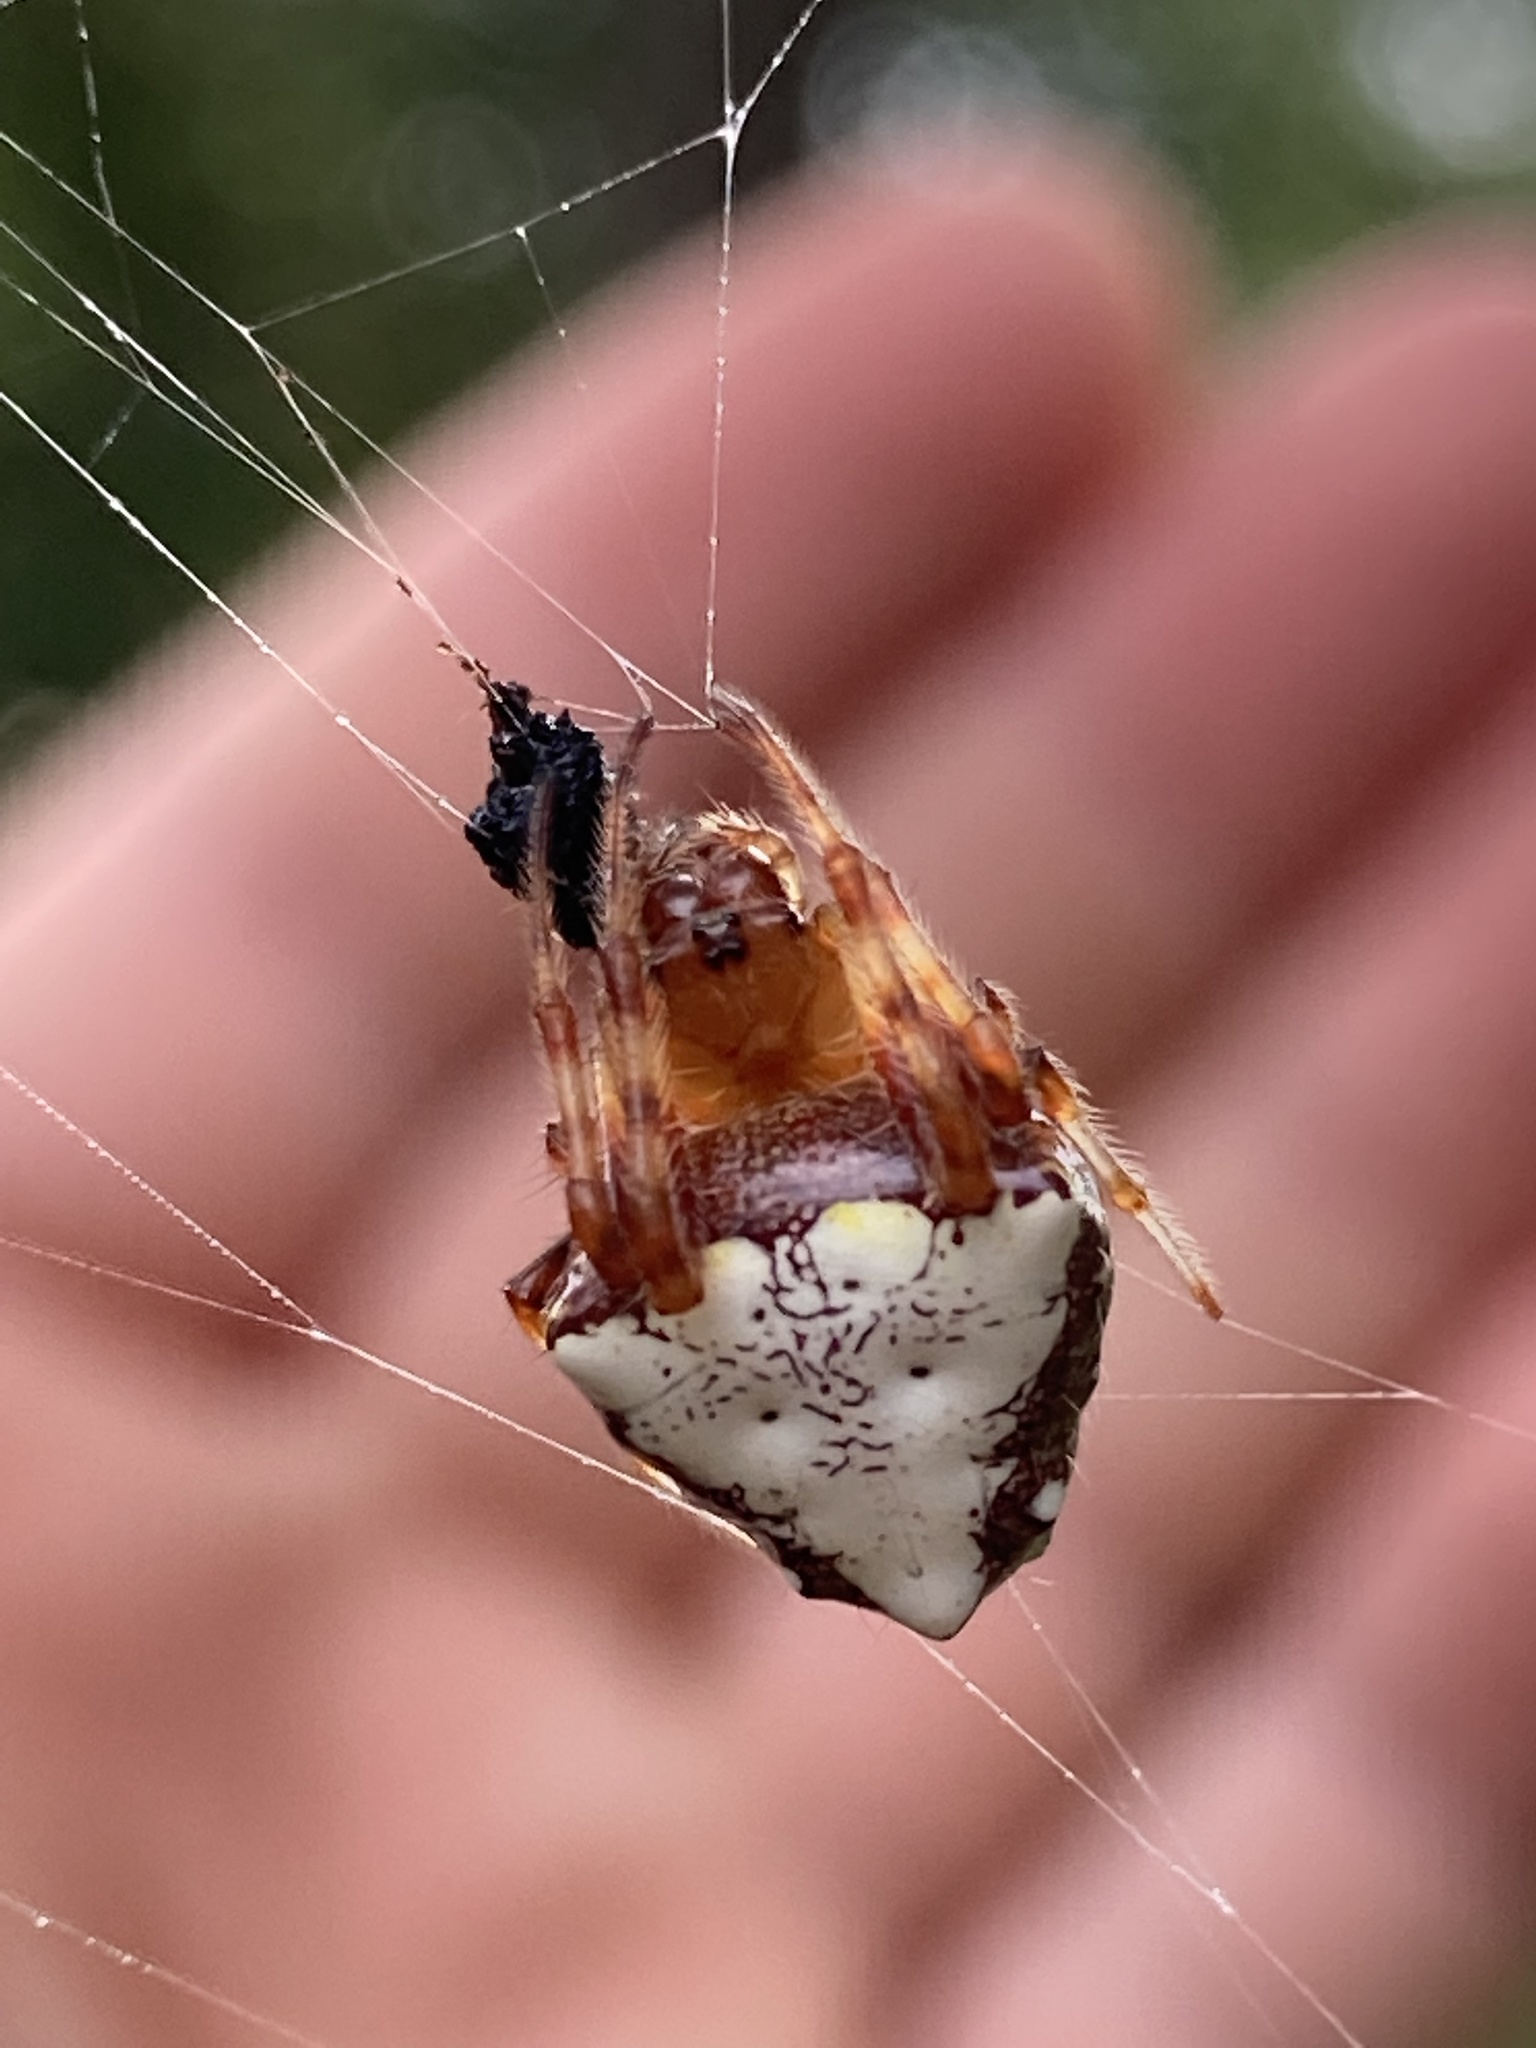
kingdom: Animalia
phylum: Arthropoda
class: Arachnida
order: Araneae
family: Araneidae
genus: Verrucosa
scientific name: Verrucosa arenata
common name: Orb weavers
